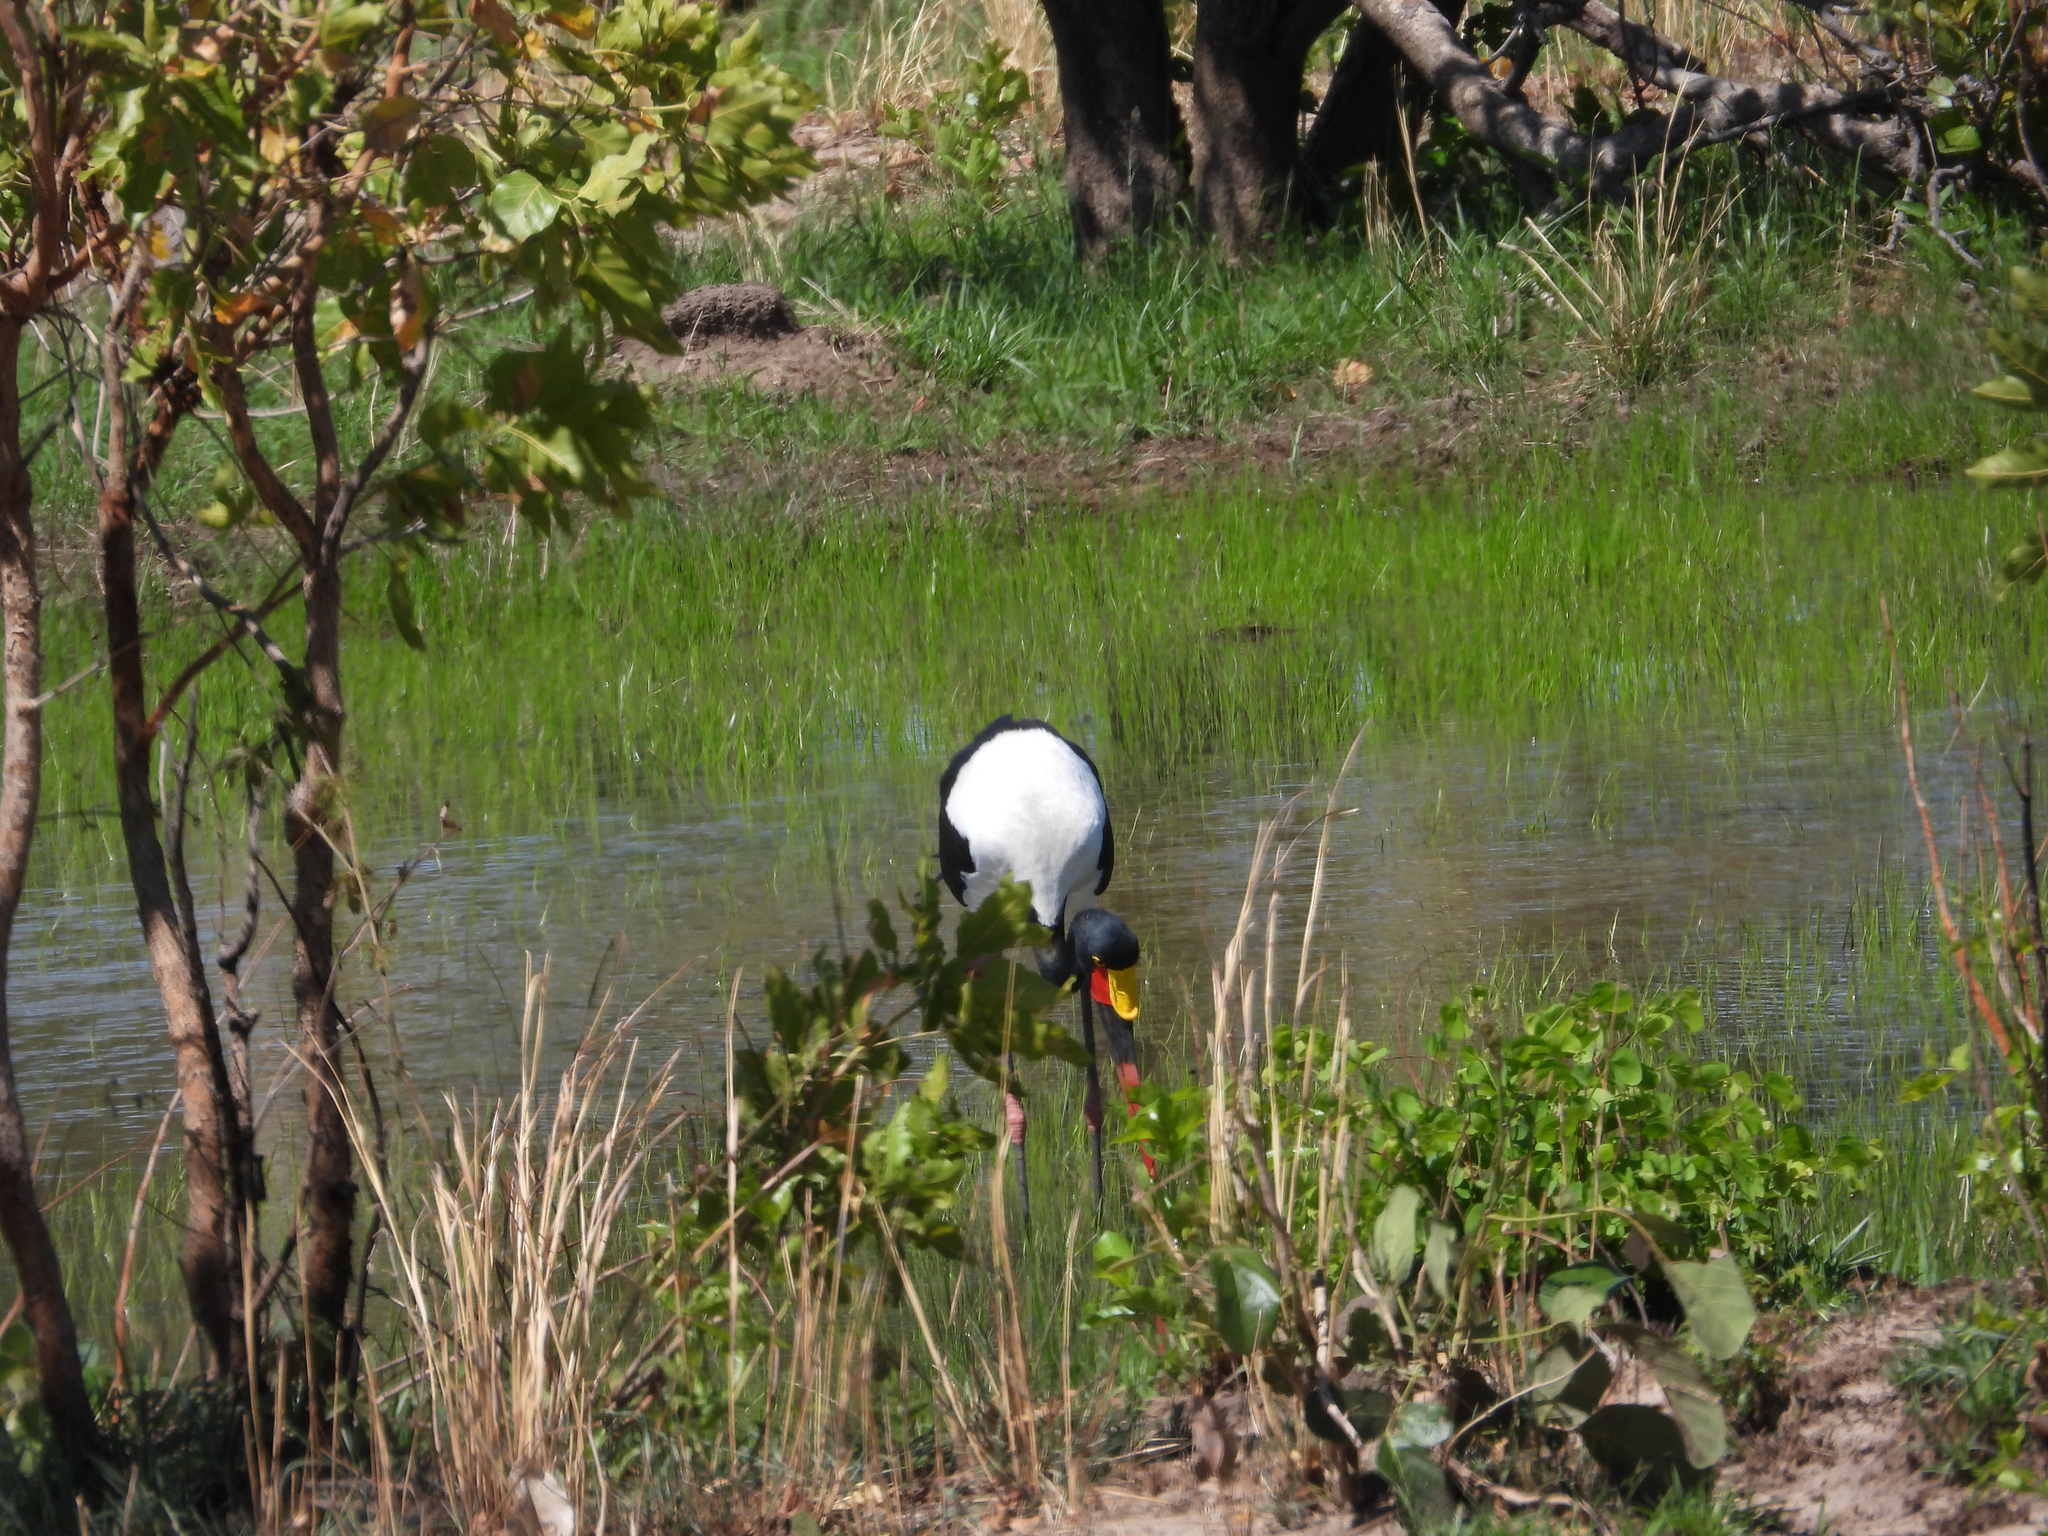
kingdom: Animalia
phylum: Chordata
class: Aves
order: Ciconiiformes
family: Ciconiidae
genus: Ephippiorhynchus
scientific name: Ephippiorhynchus senegalensis
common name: Saddle-billed stork
